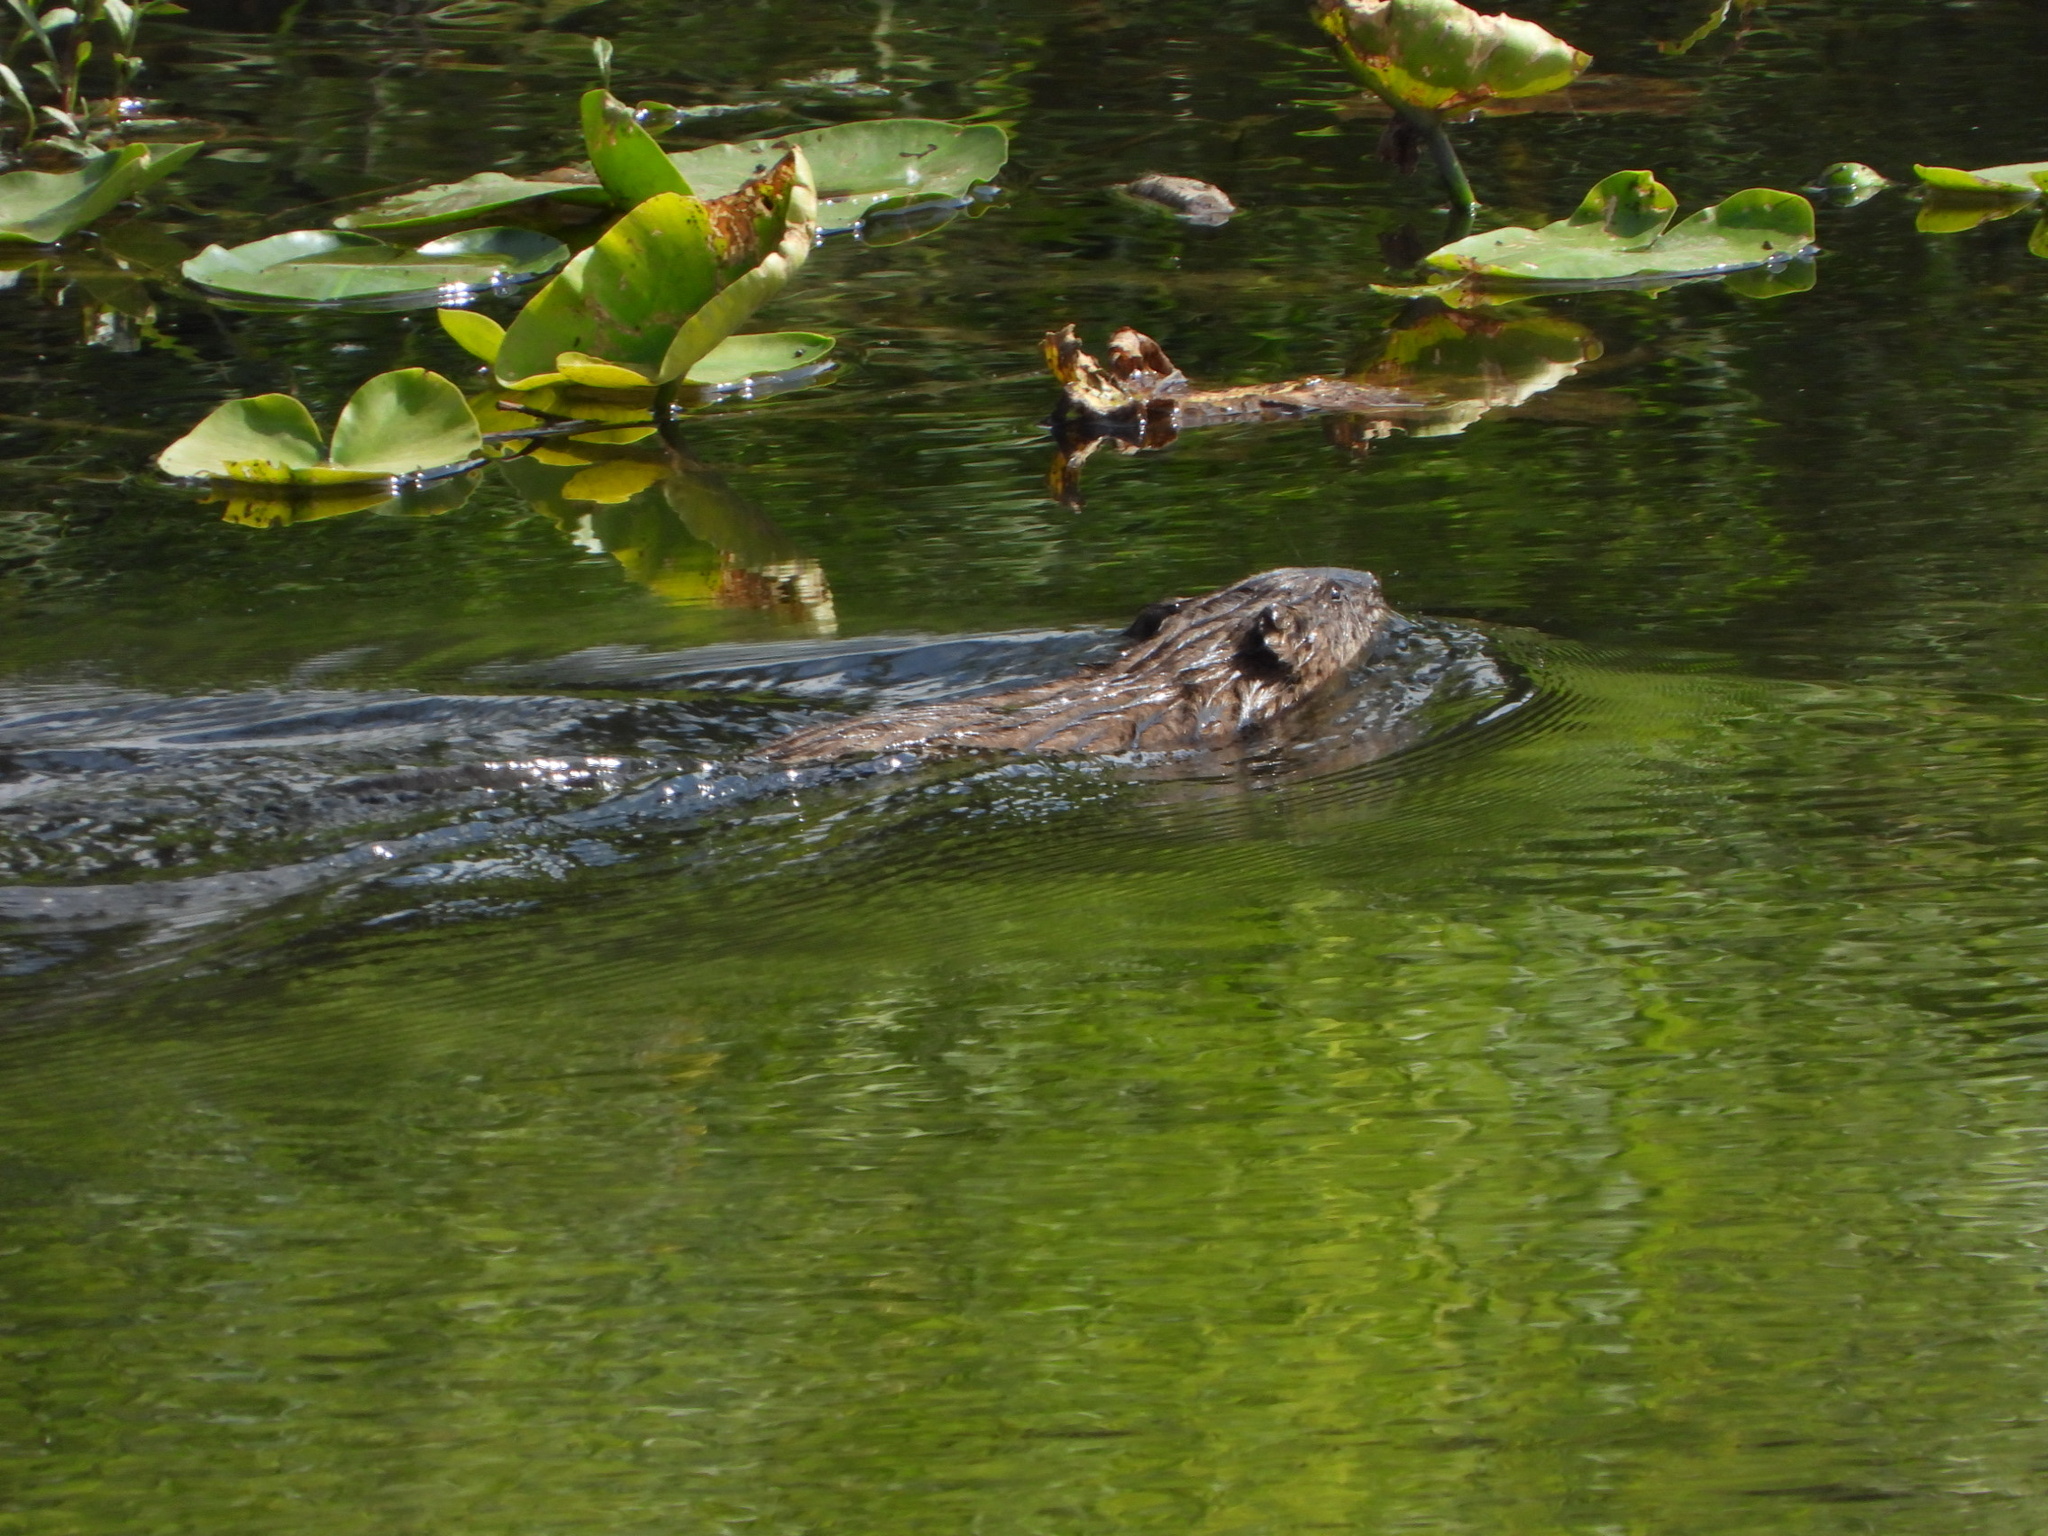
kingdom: Animalia
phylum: Chordata
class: Mammalia
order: Rodentia
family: Cricetidae
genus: Ondatra
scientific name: Ondatra zibethicus
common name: Muskrat
